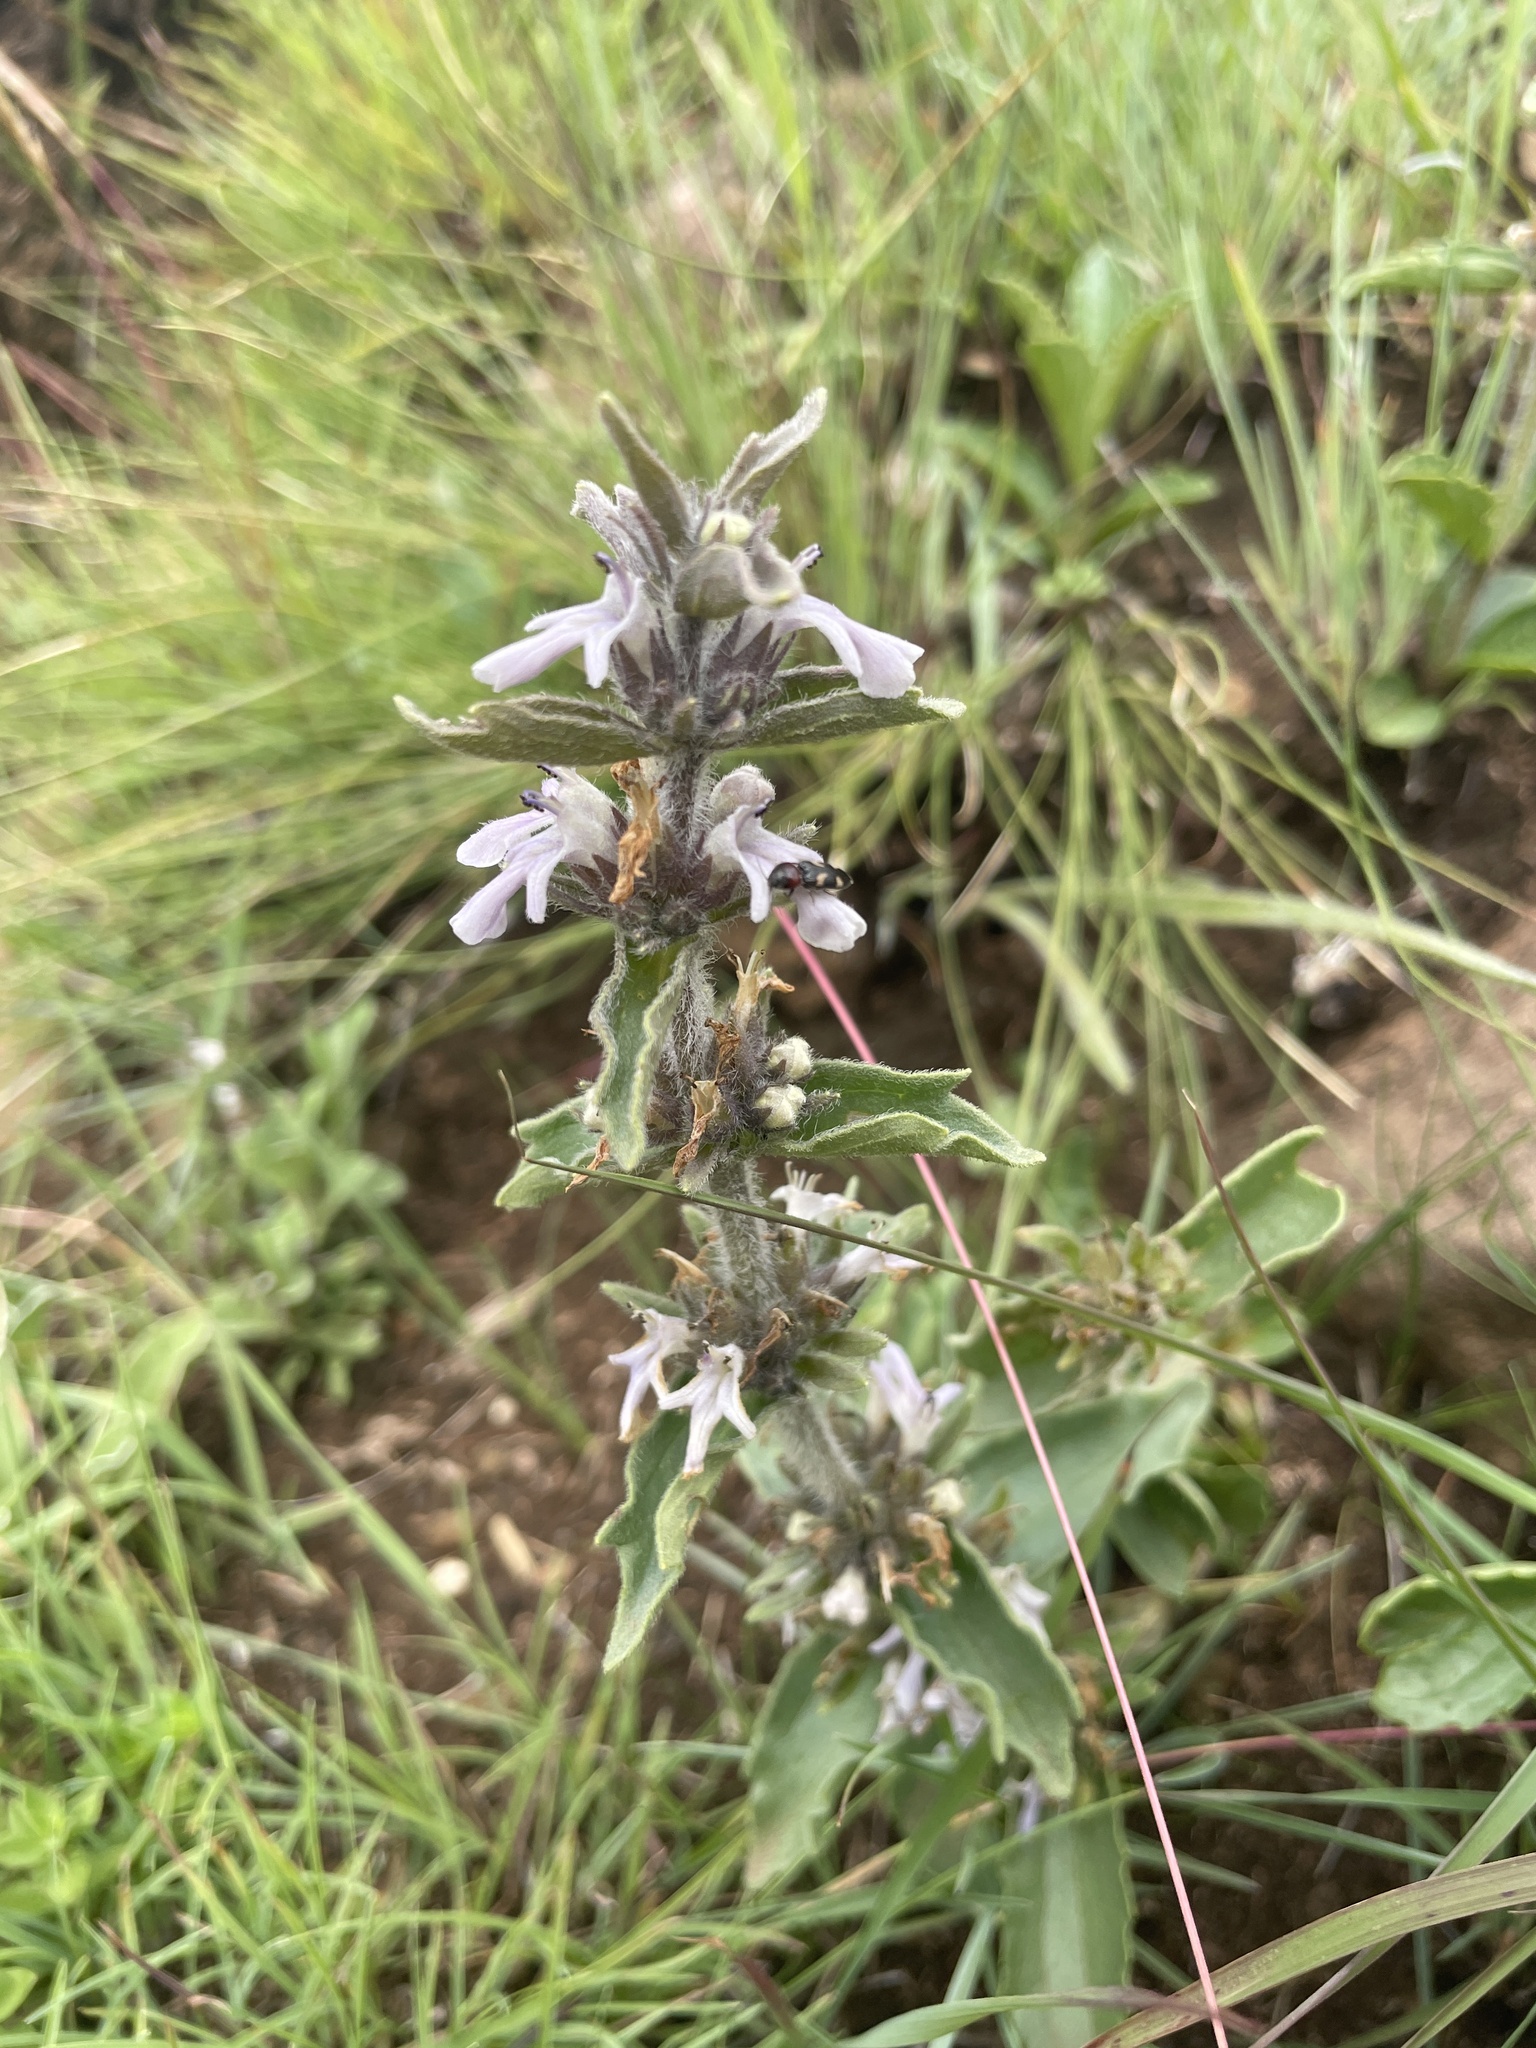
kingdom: Plantae
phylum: Tracheophyta
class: Magnoliopsida
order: Lamiales
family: Lamiaceae
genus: Ajuga
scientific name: Ajuga ophrydis
